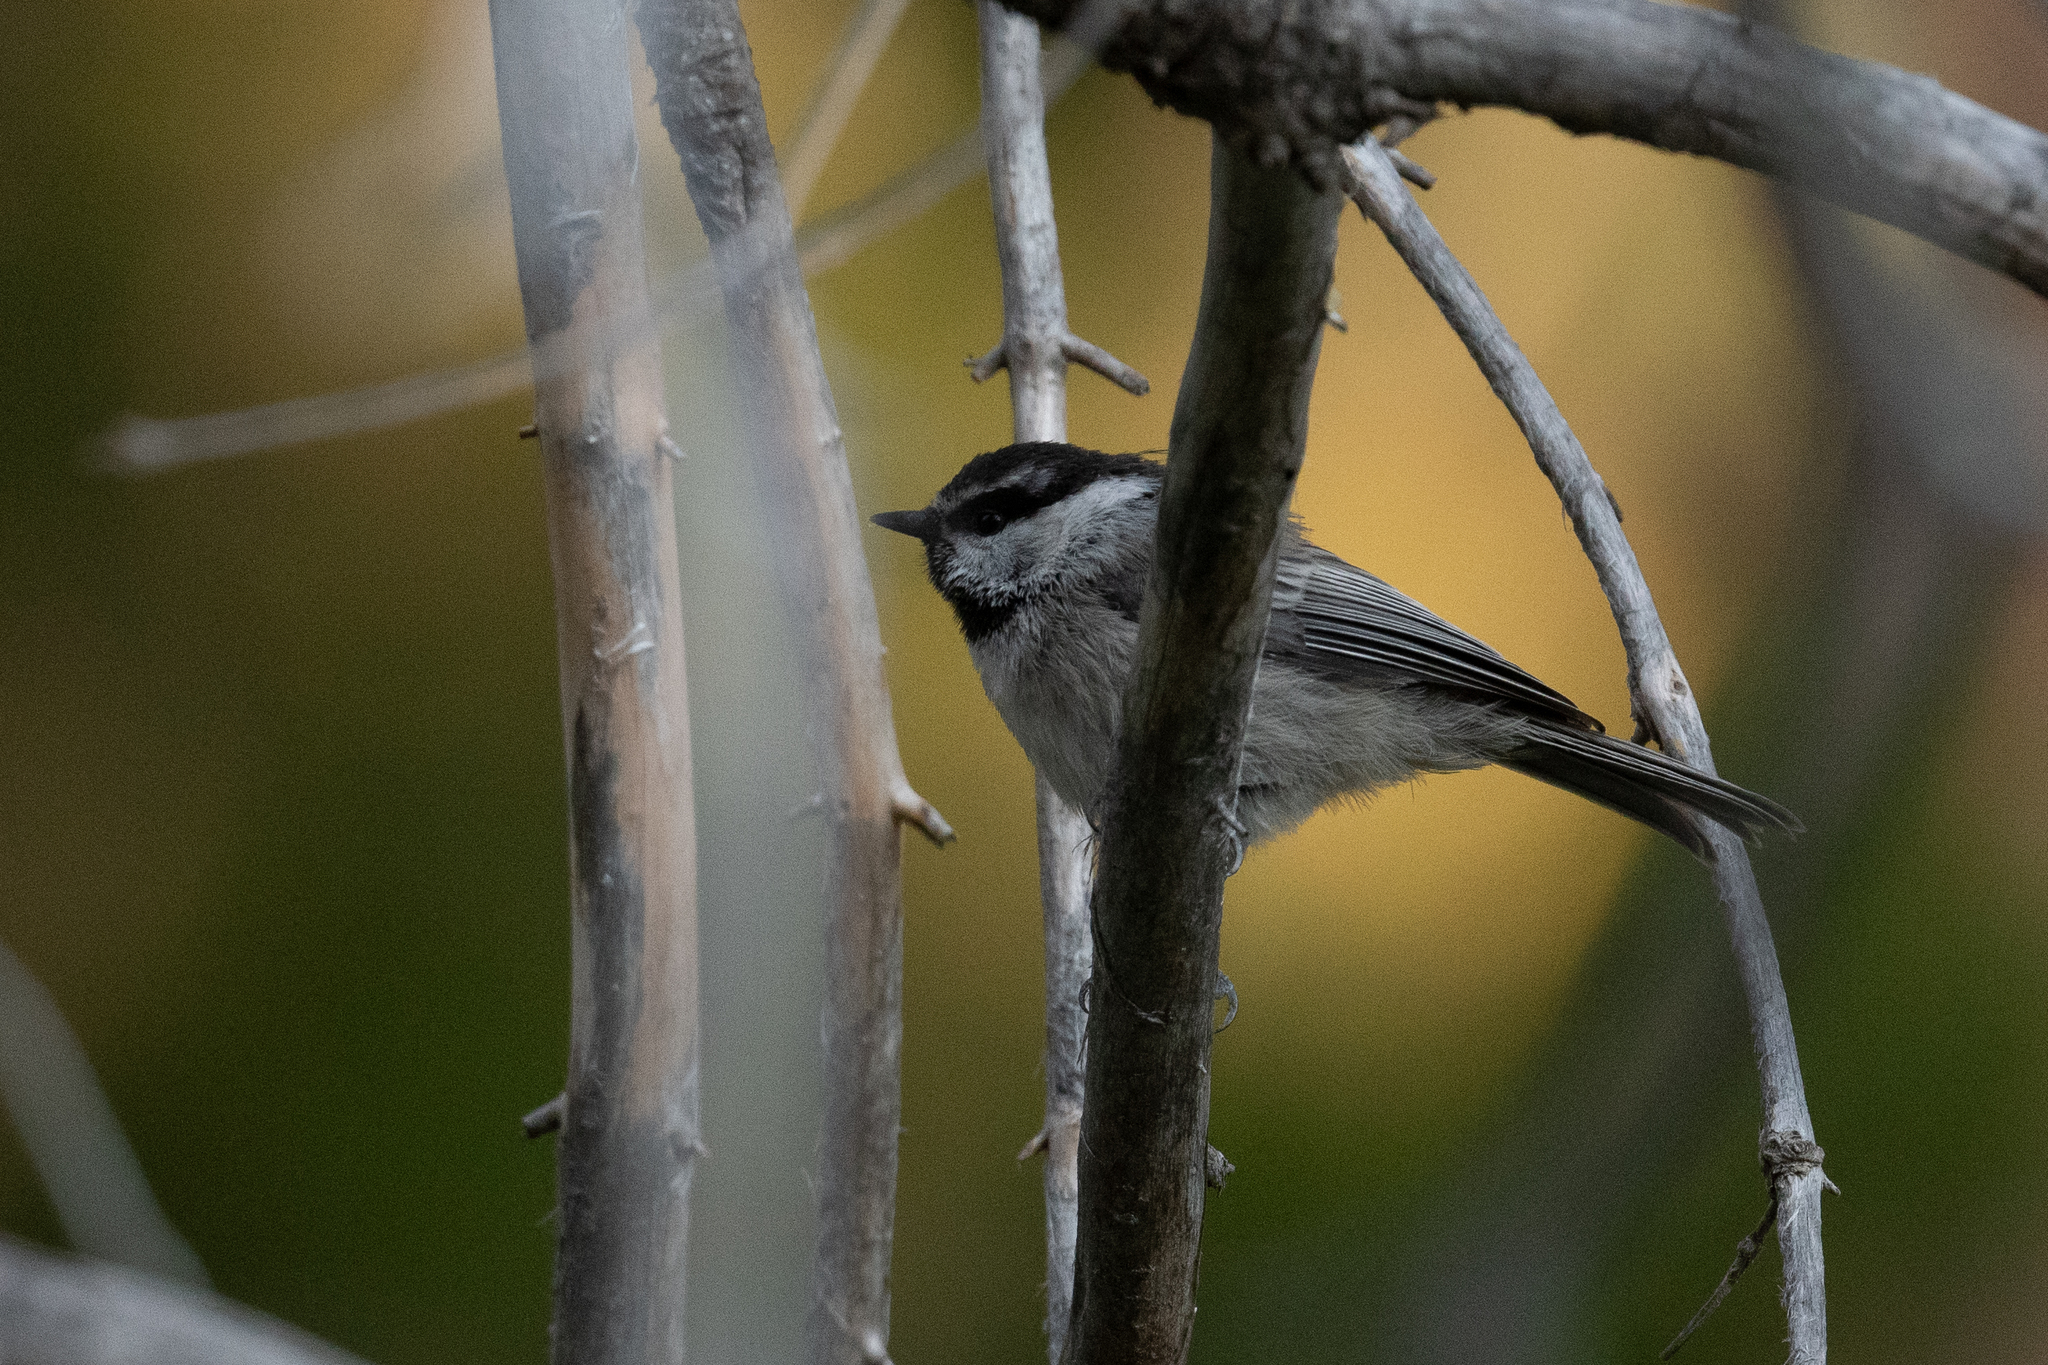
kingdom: Animalia
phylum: Chordata
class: Aves
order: Passeriformes
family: Paridae
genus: Poecile
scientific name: Poecile gambeli
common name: Mountain chickadee
